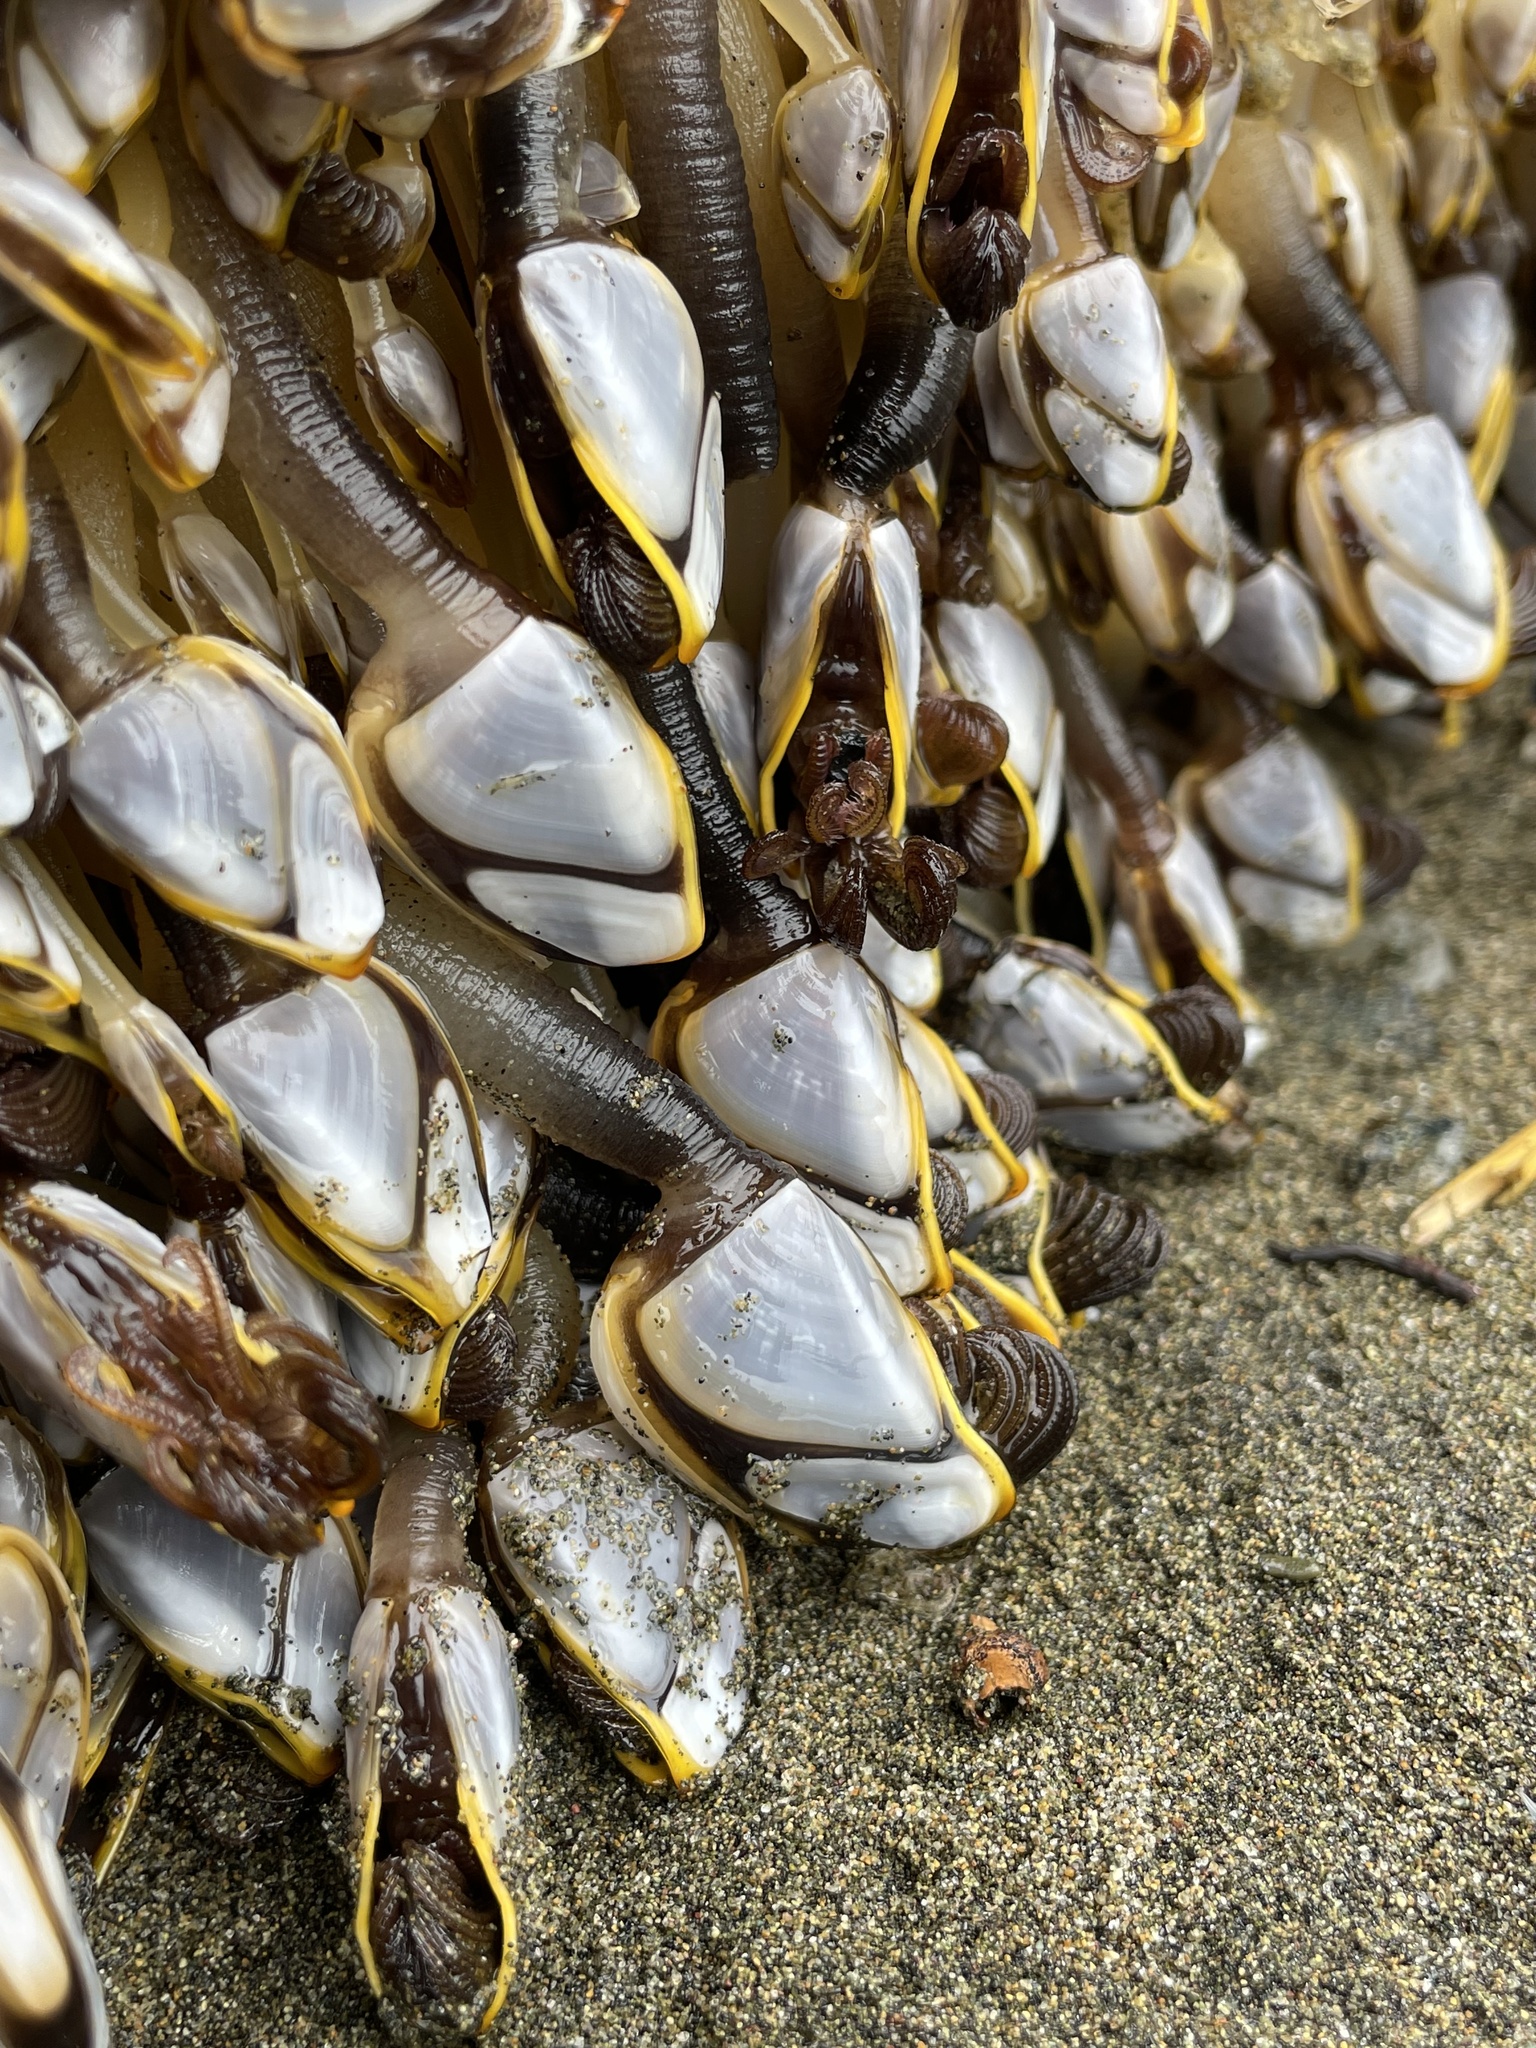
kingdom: Animalia
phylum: Arthropoda
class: Maxillopoda
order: Pedunculata
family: Lepadidae
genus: Lepas
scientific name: Lepas anatifera
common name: Common goose barnacle
